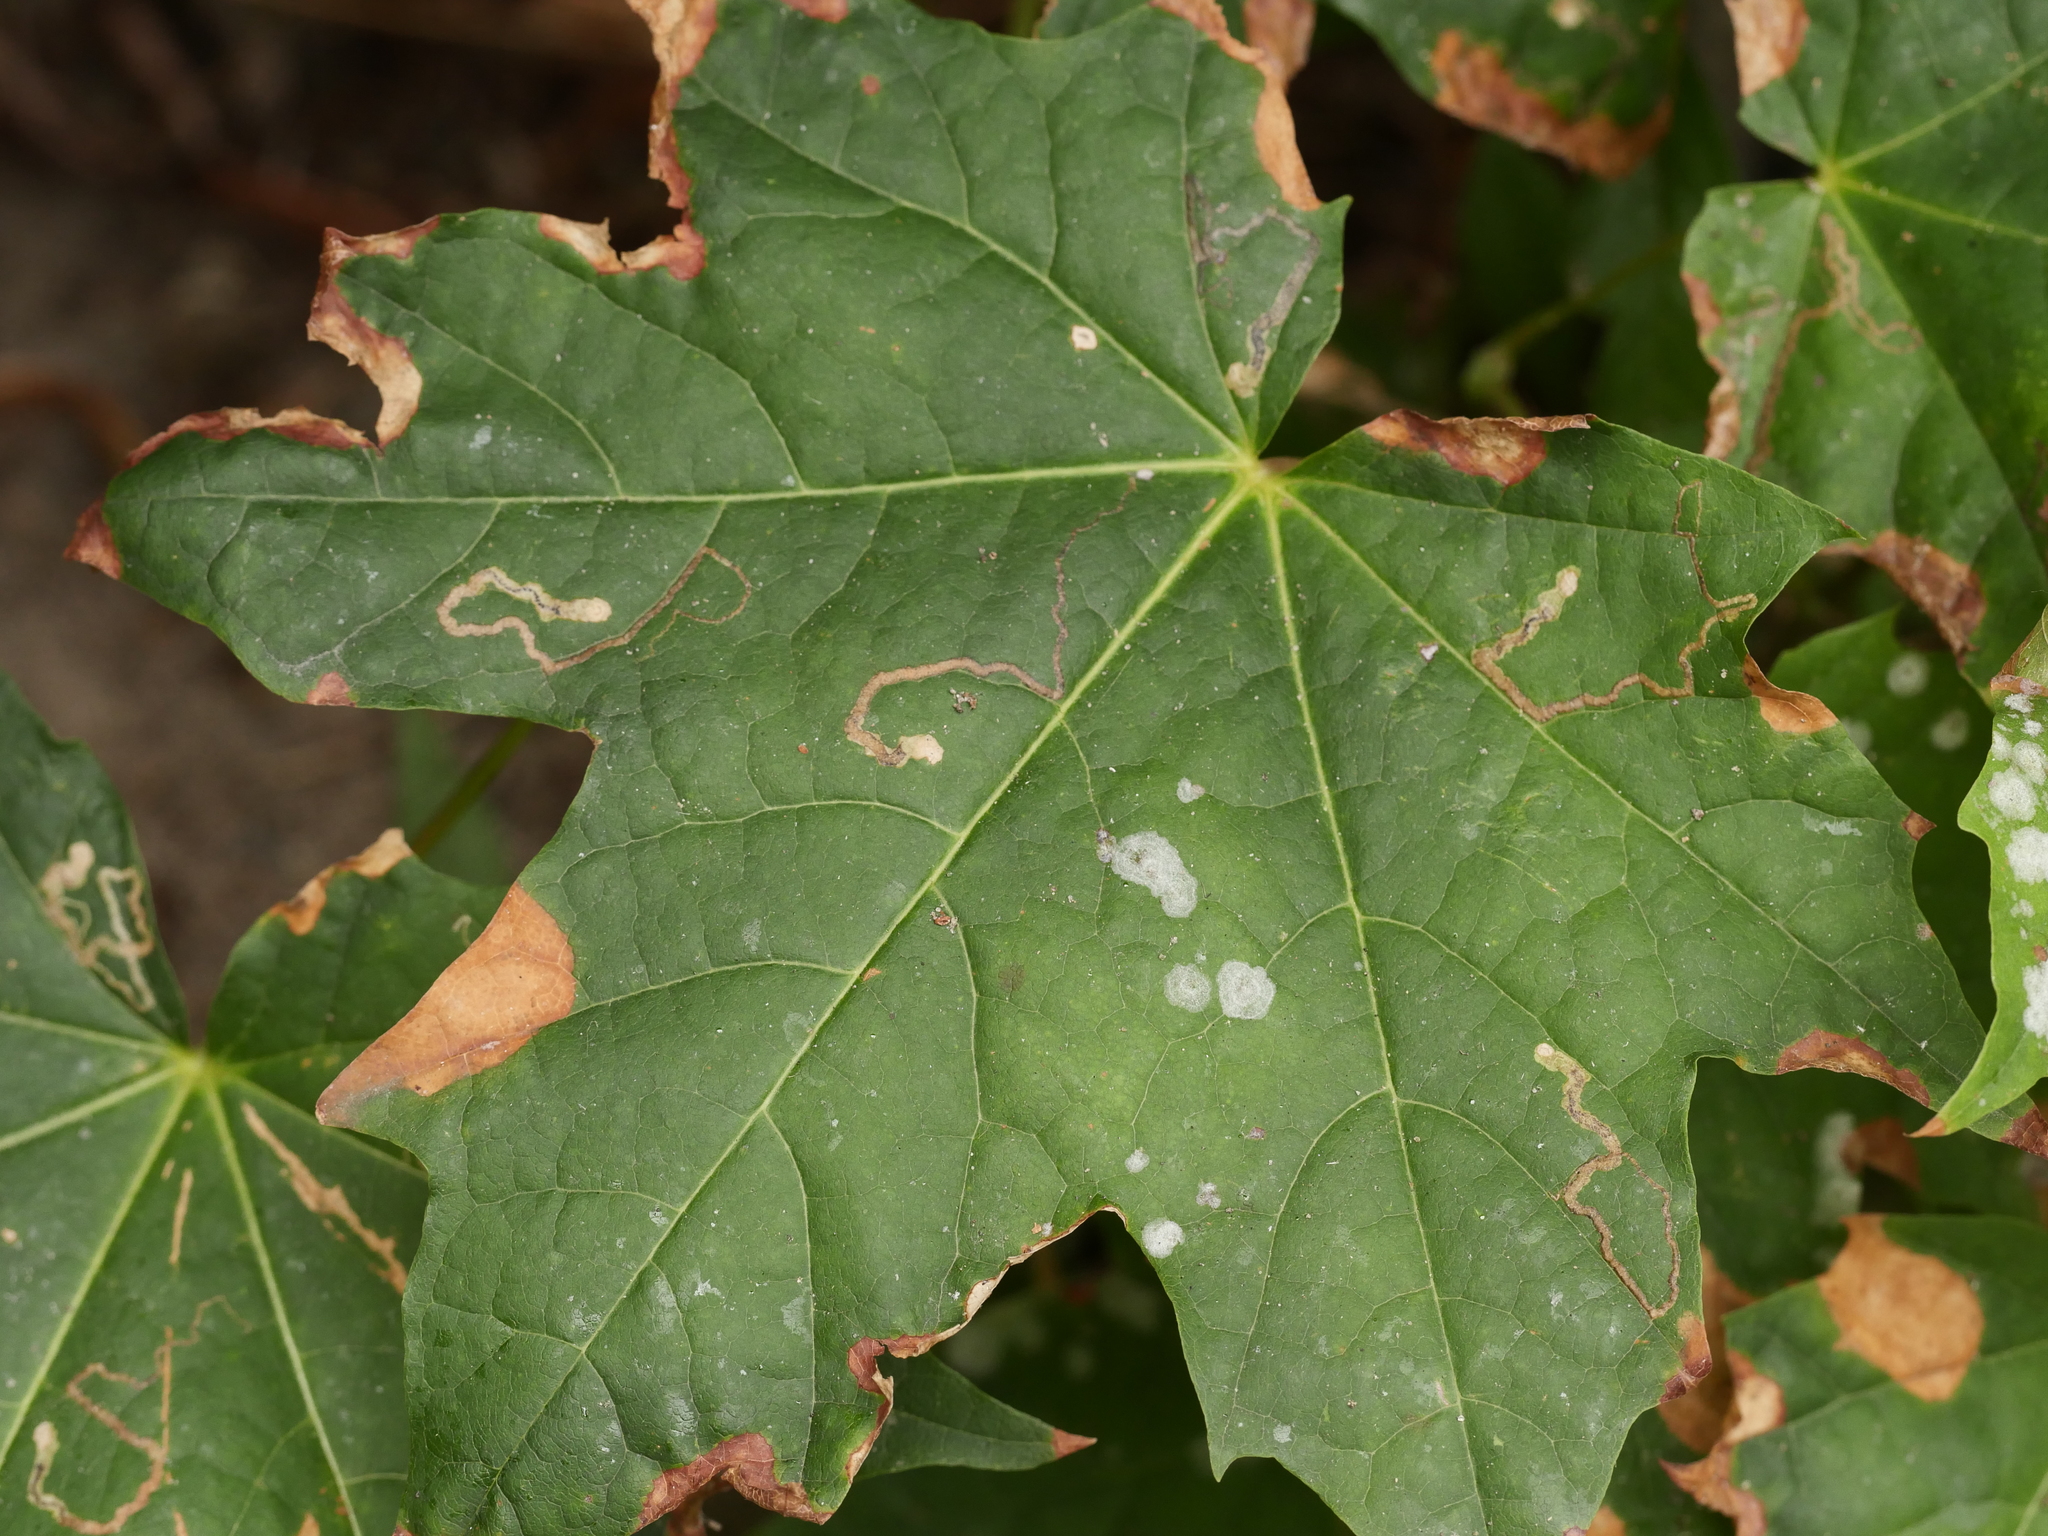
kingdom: Plantae
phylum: Tracheophyta
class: Magnoliopsida
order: Sapindales
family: Sapindaceae
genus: Acer
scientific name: Acer platanoides
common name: Norway maple
